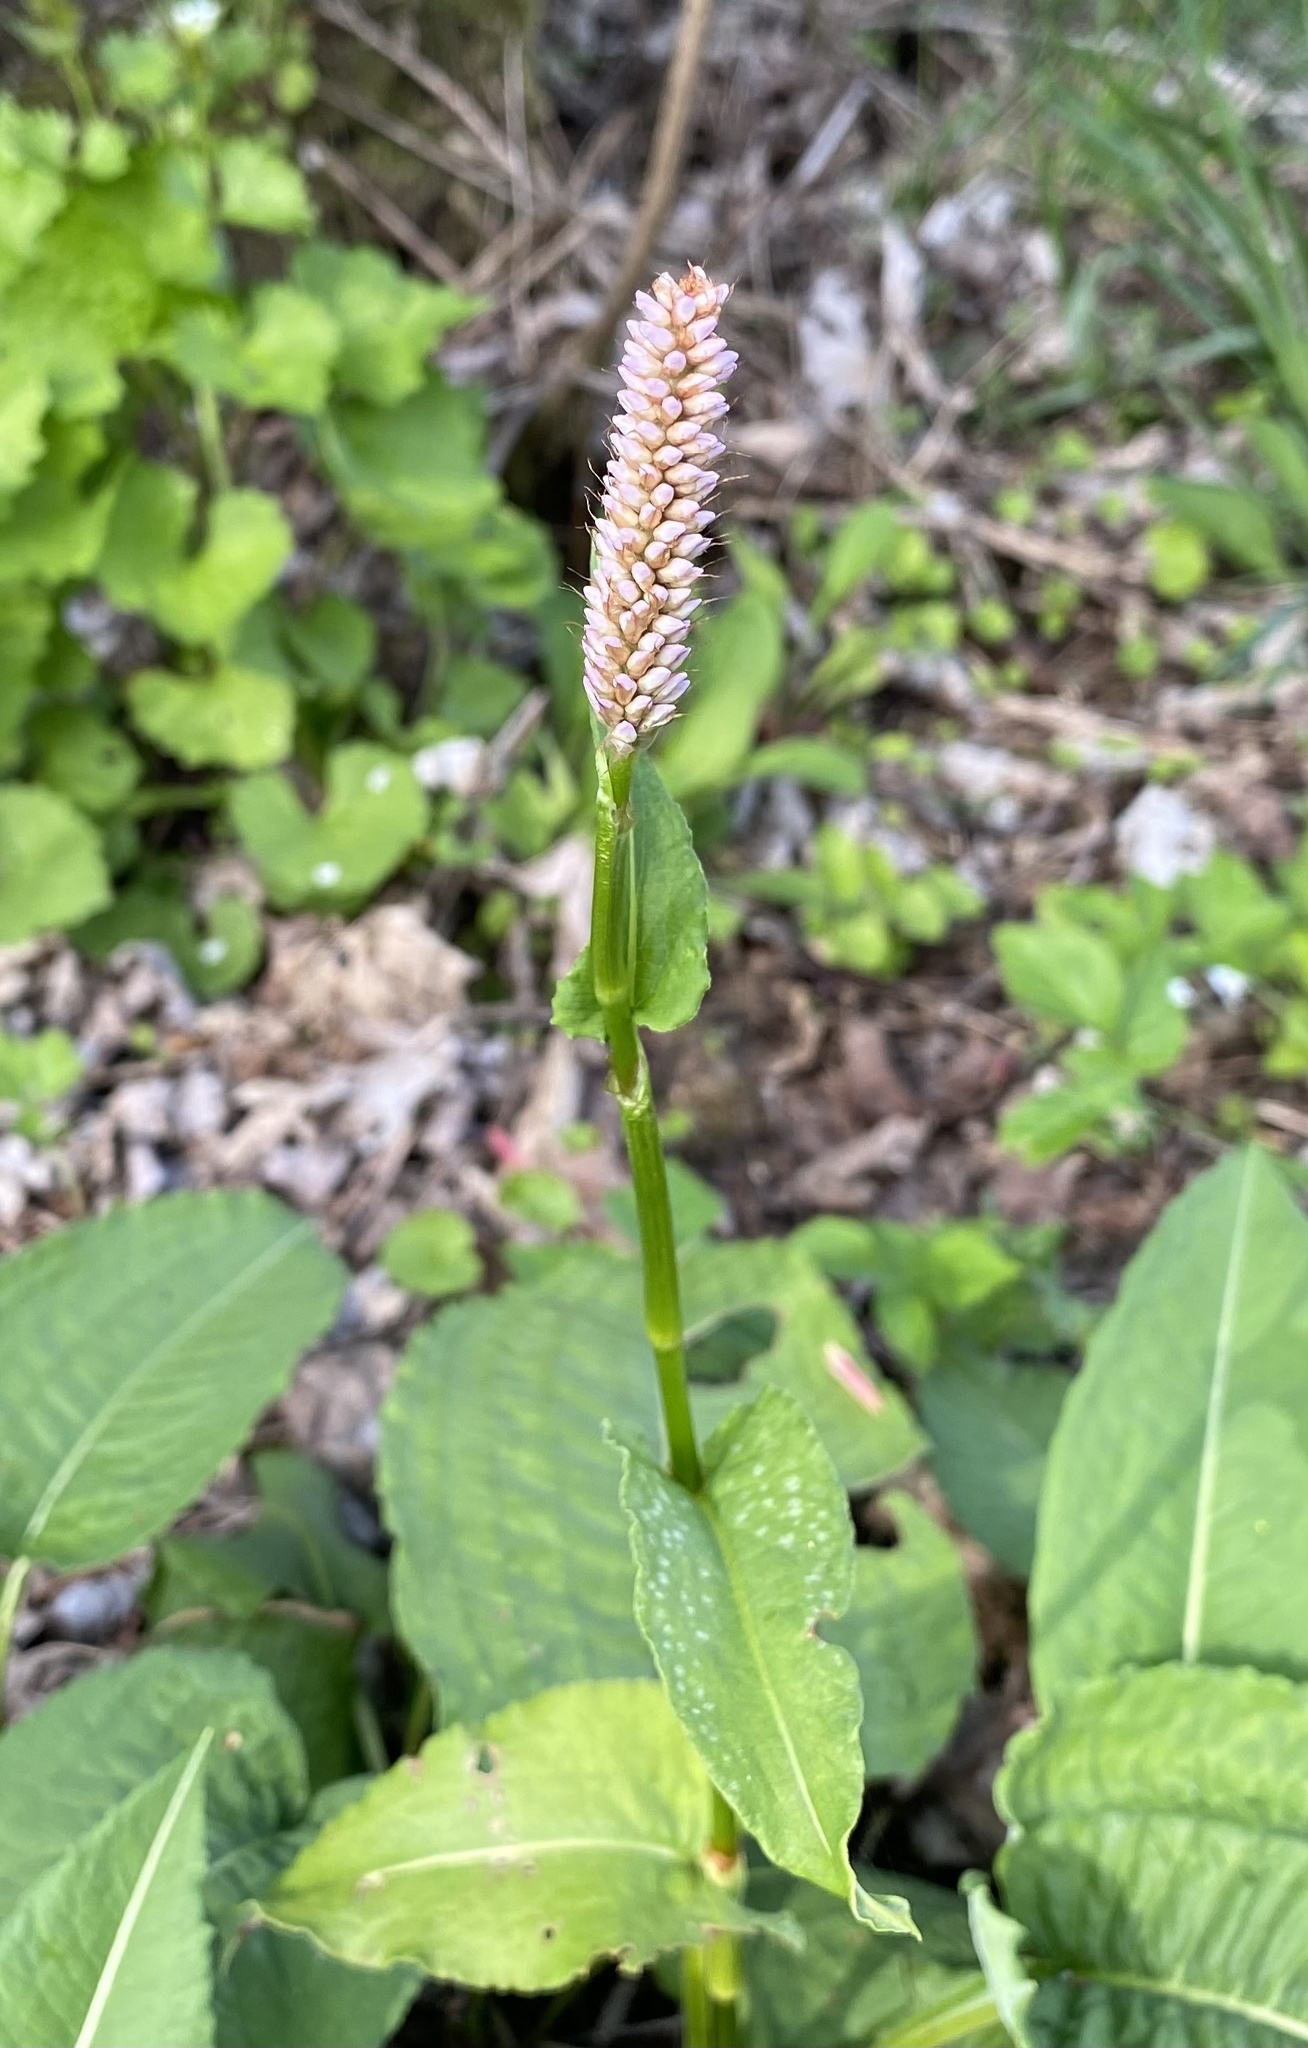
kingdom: Plantae
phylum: Tracheophyta
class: Magnoliopsida
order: Caryophyllales
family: Polygonaceae
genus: Bistorta
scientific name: Bistorta officinalis
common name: Common bistort
